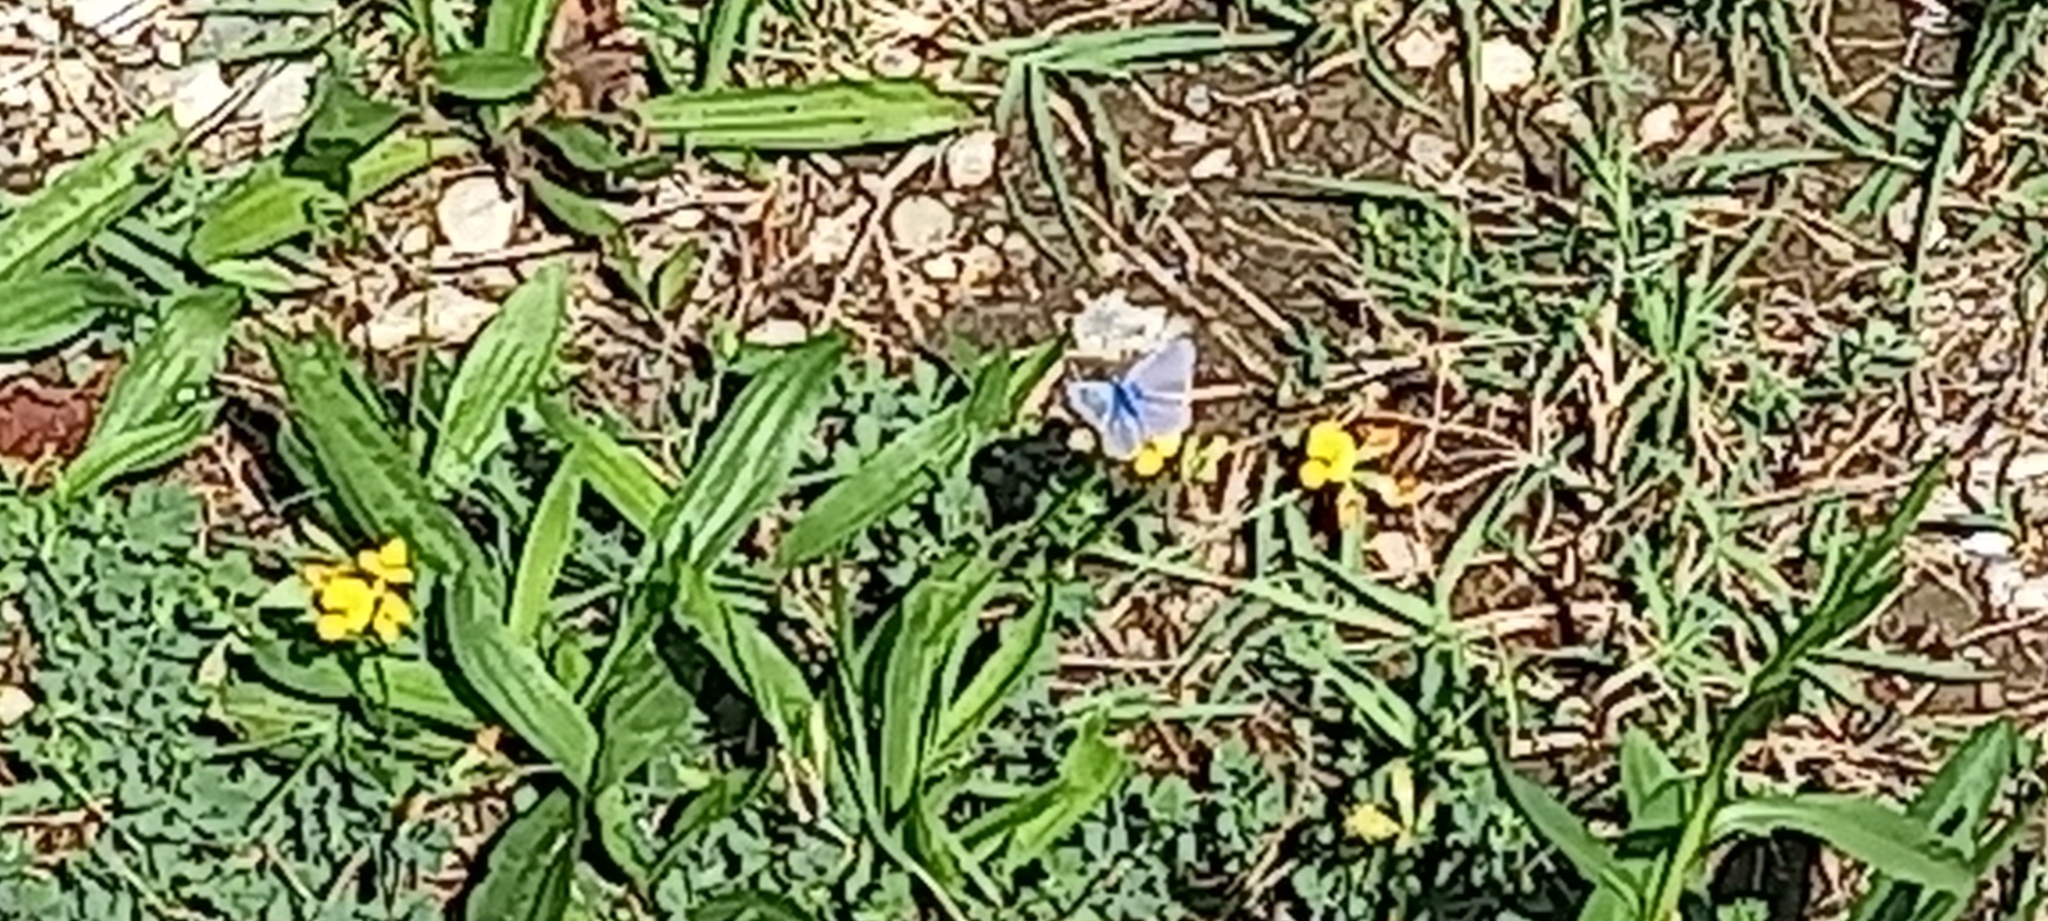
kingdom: Animalia
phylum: Arthropoda
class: Insecta
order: Lepidoptera
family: Lycaenidae
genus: Polyommatus
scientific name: Polyommatus icarus
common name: Common blue
